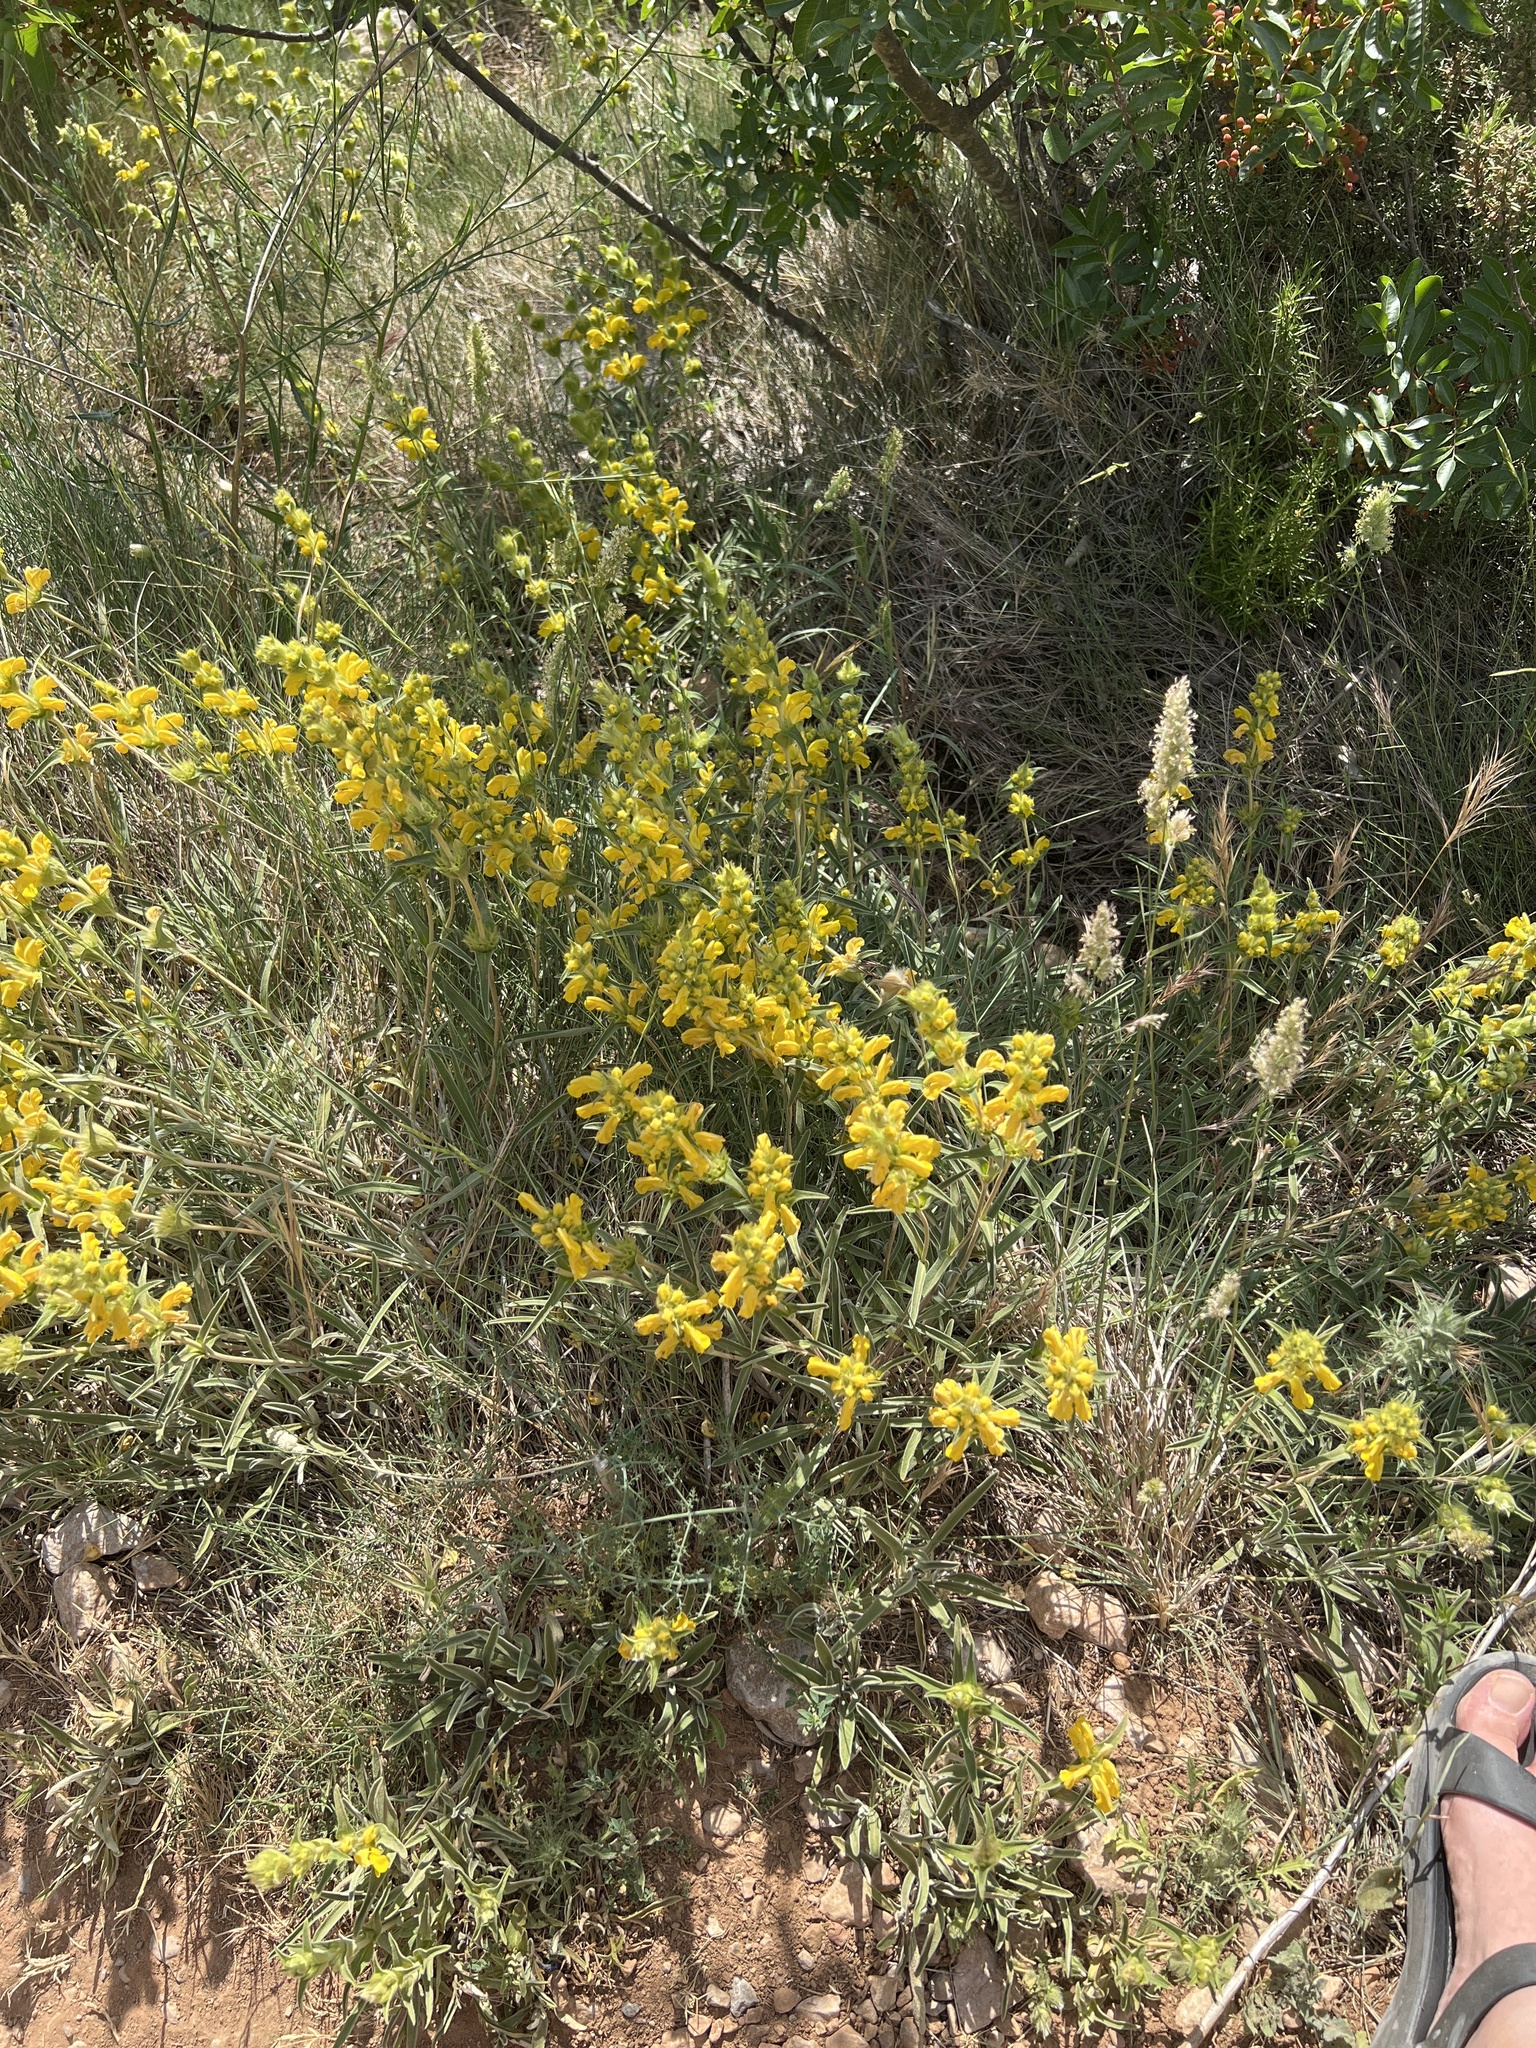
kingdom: Plantae
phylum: Tracheophyta
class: Magnoliopsida
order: Lamiales
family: Lamiaceae
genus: Phlomis
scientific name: Phlomis lychnitis
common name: Lampwickplant
